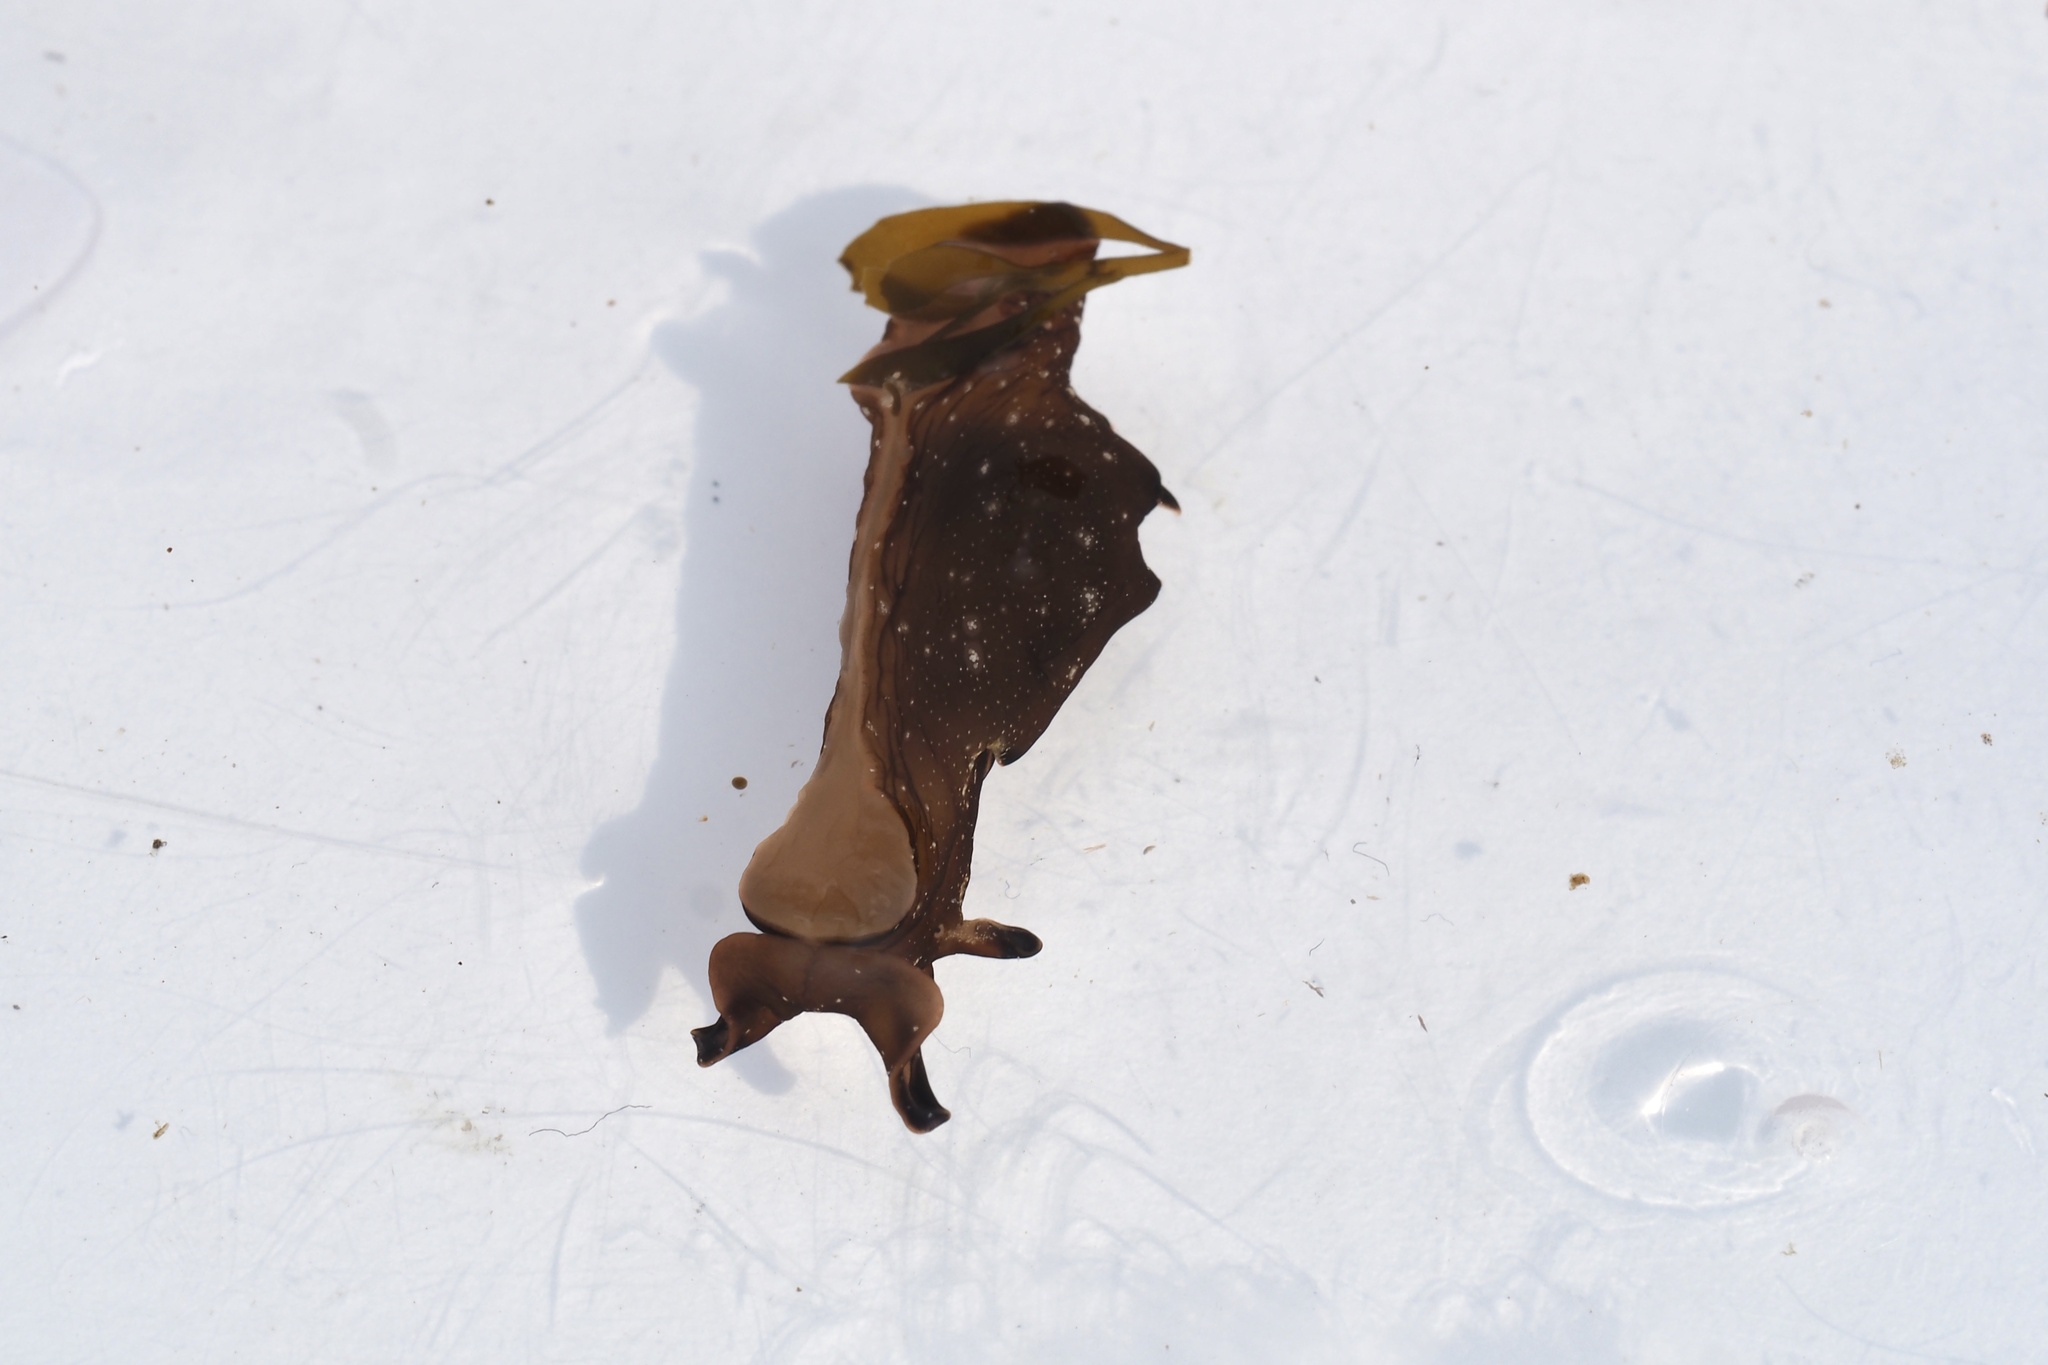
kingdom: Animalia
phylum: Mollusca
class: Gastropoda
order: Aplysiida
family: Aplysiidae
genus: Aplysia
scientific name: Aplysia juliana
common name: Walking sea hare
